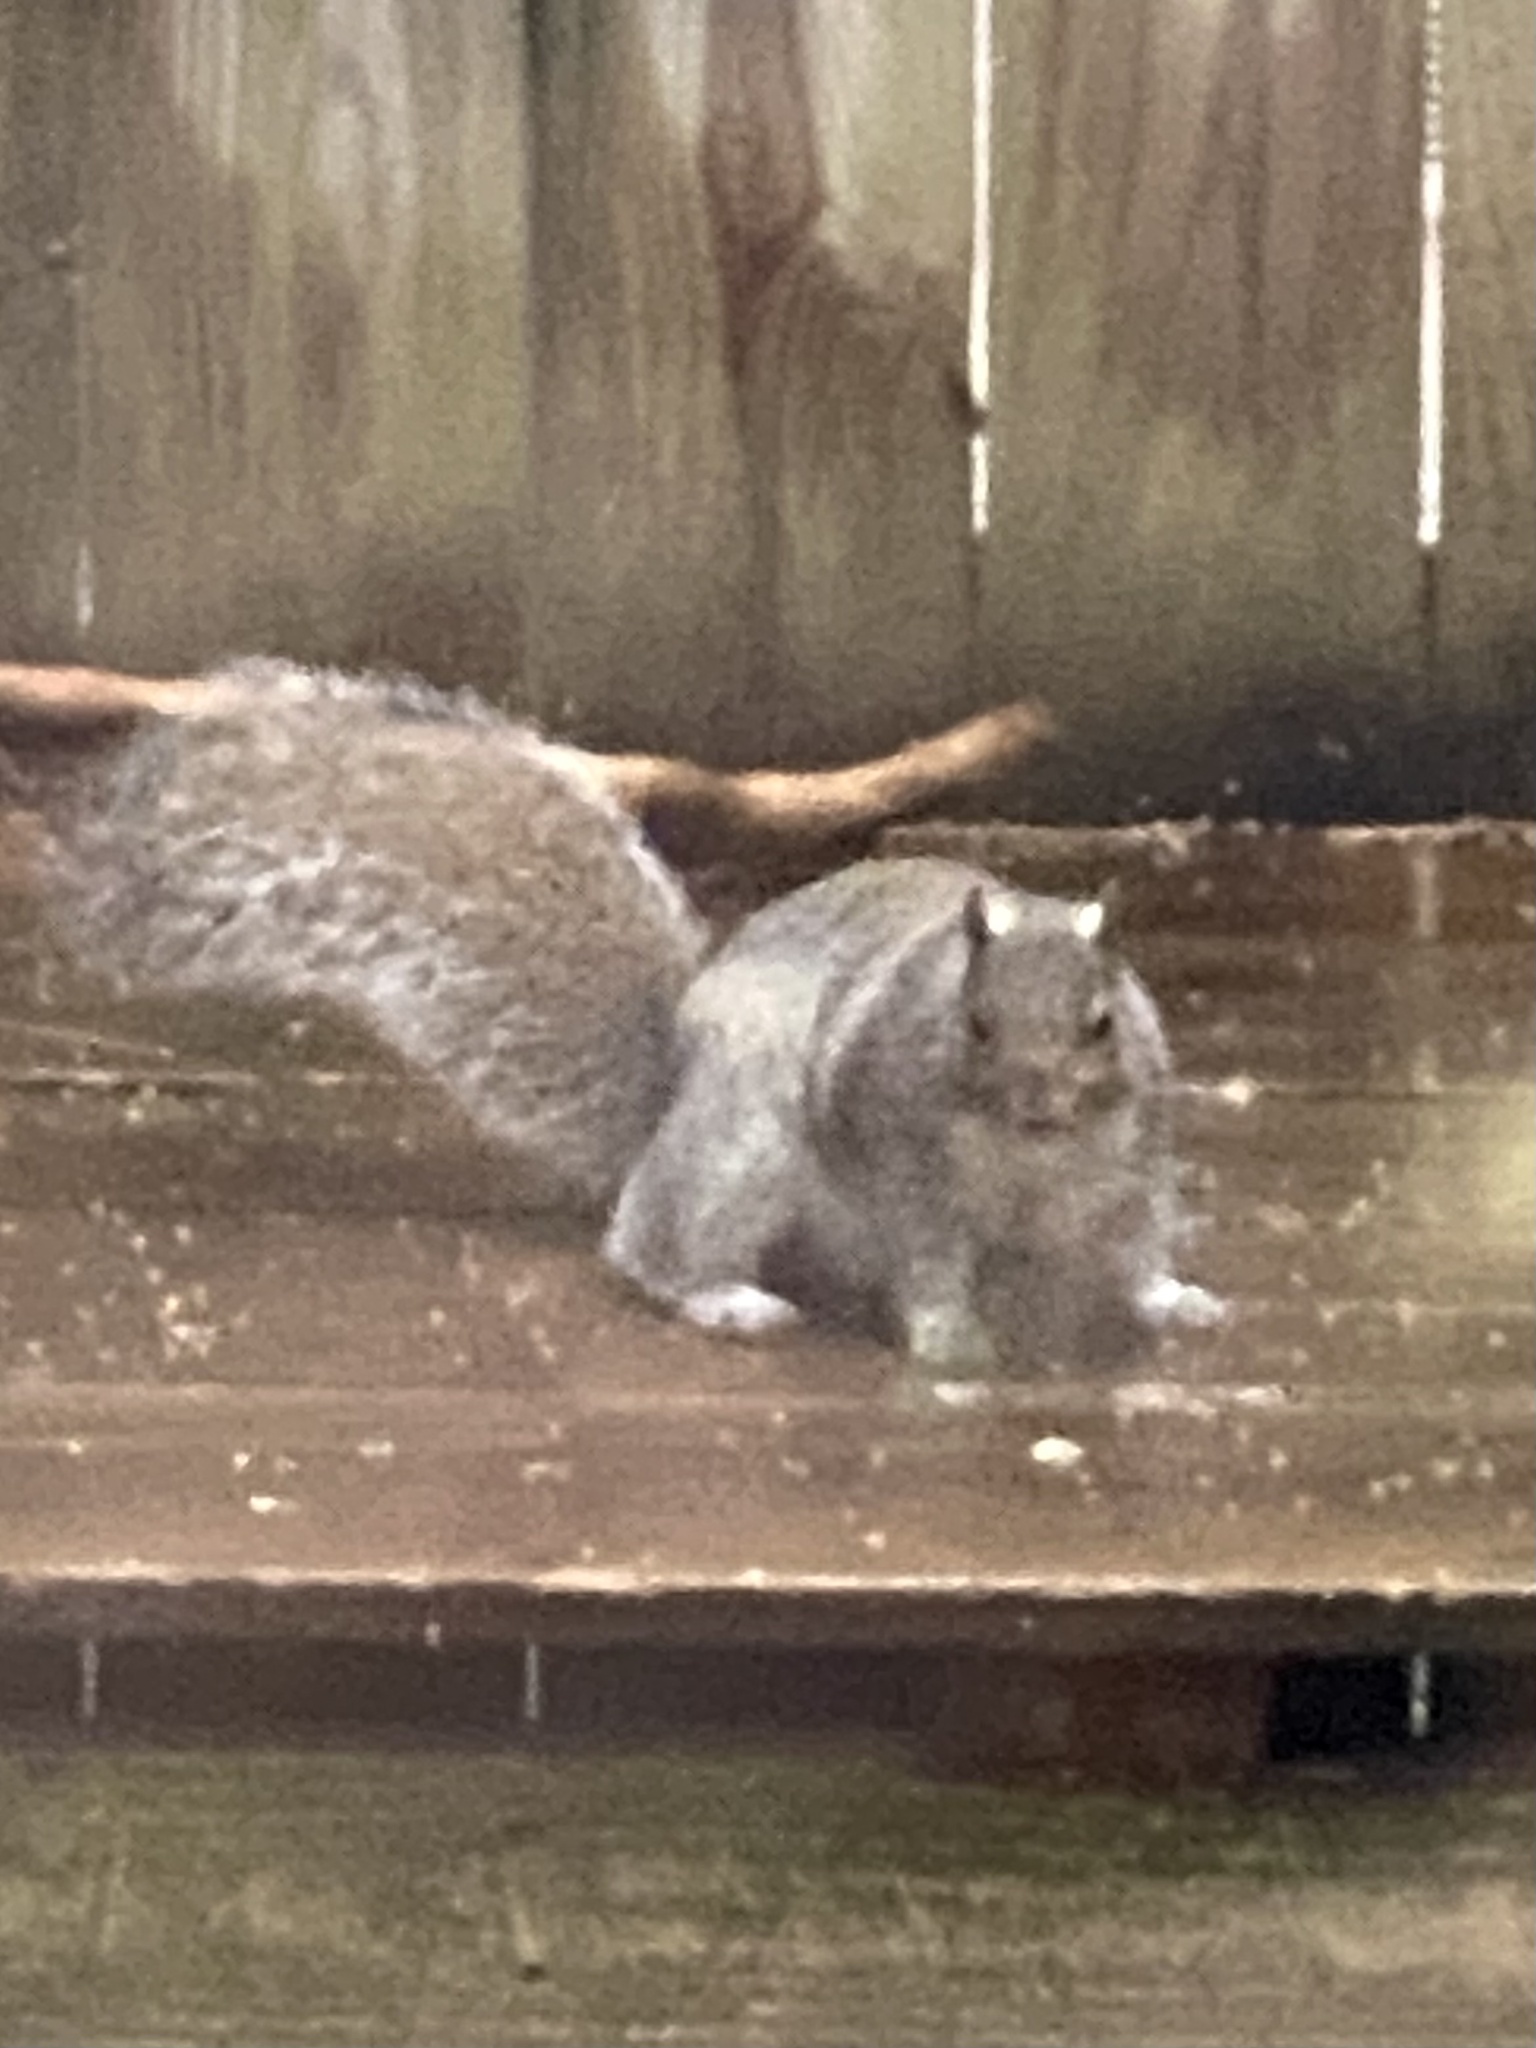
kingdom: Animalia
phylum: Chordata
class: Mammalia
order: Rodentia
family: Sciuridae
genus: Sciurus
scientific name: Sciurus carolinensis
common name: Eastern gray squirrel
